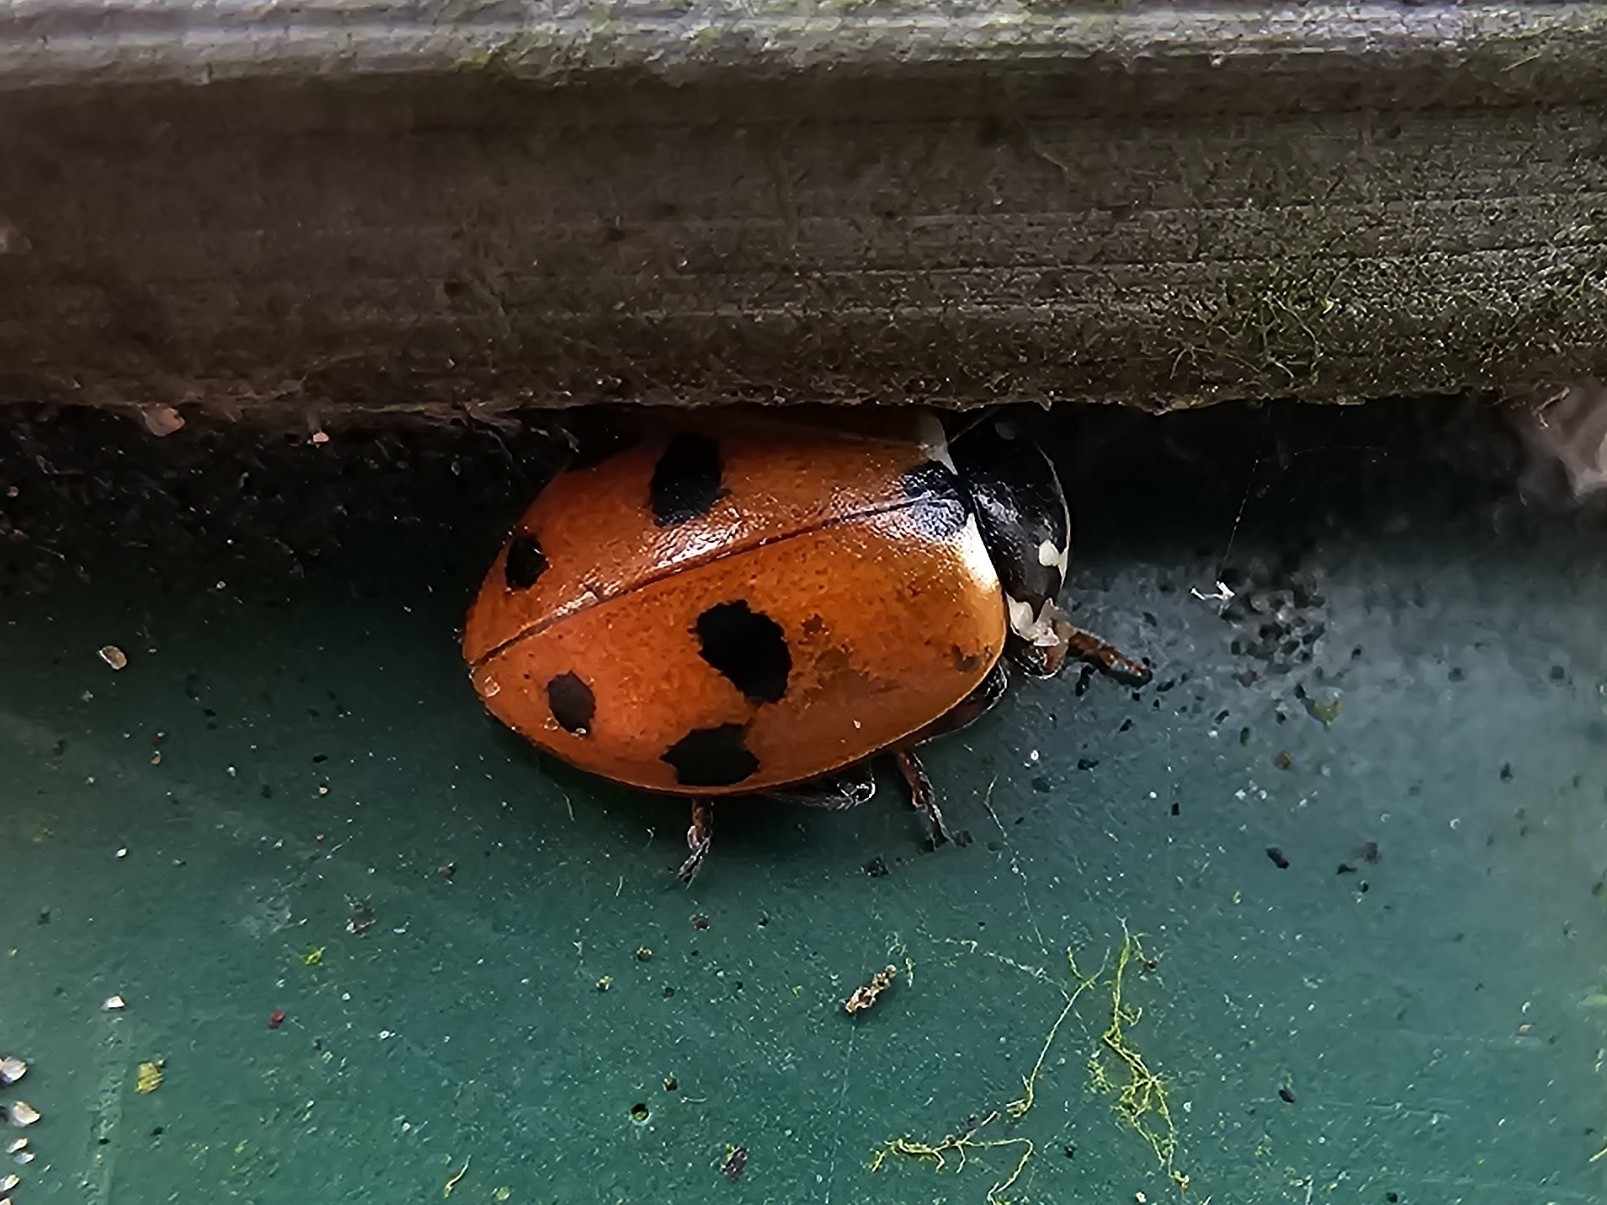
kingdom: Animalia
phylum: Arthropoda
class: Insecta
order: Coleoptera
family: Coccinellidae
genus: Hippodamia
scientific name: Hippodamia variegata
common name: Ladybird beetle
